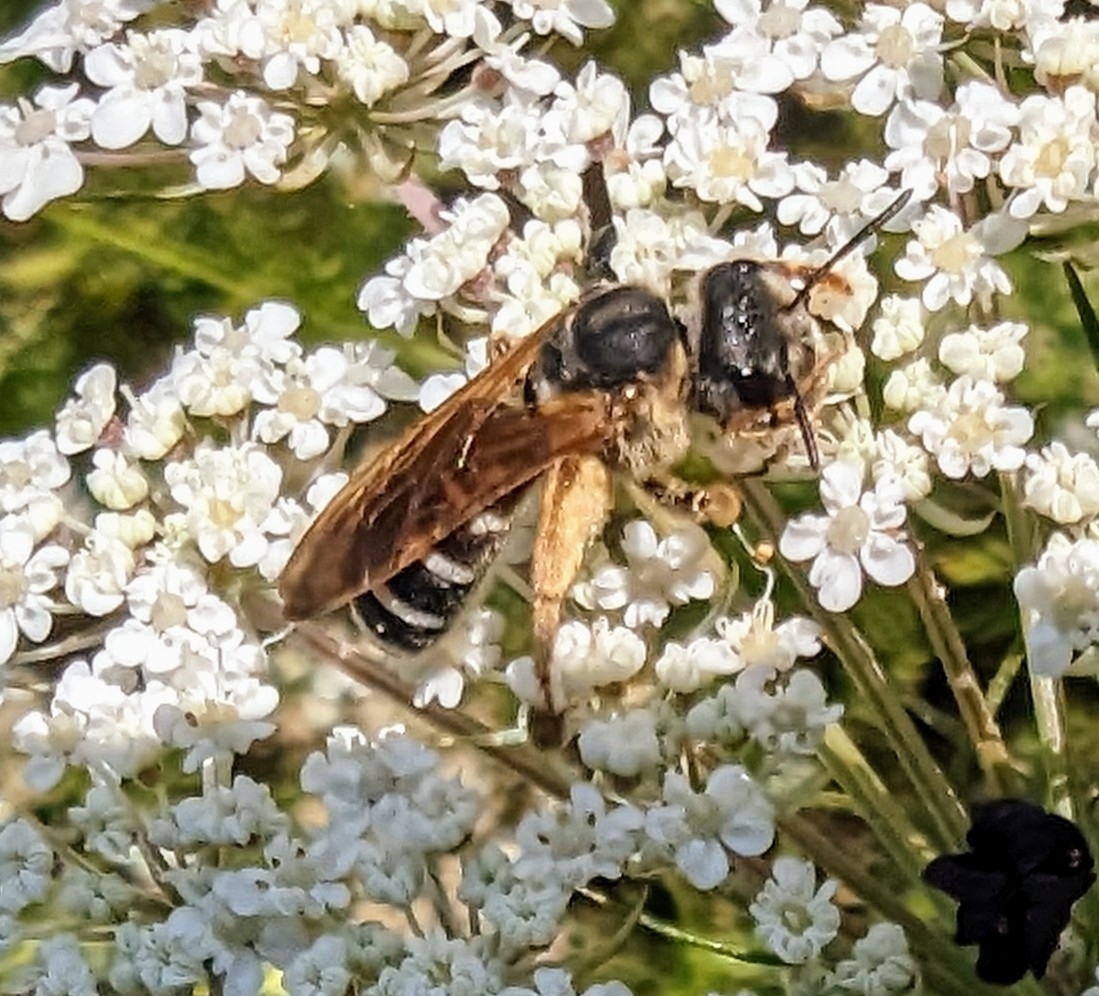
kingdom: Animalia
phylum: Arthropoda
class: Insecta
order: Hymenoptera
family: Halictidae
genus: Halictus
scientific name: Halictus parallelus
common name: Parallel-striped sweat bee
